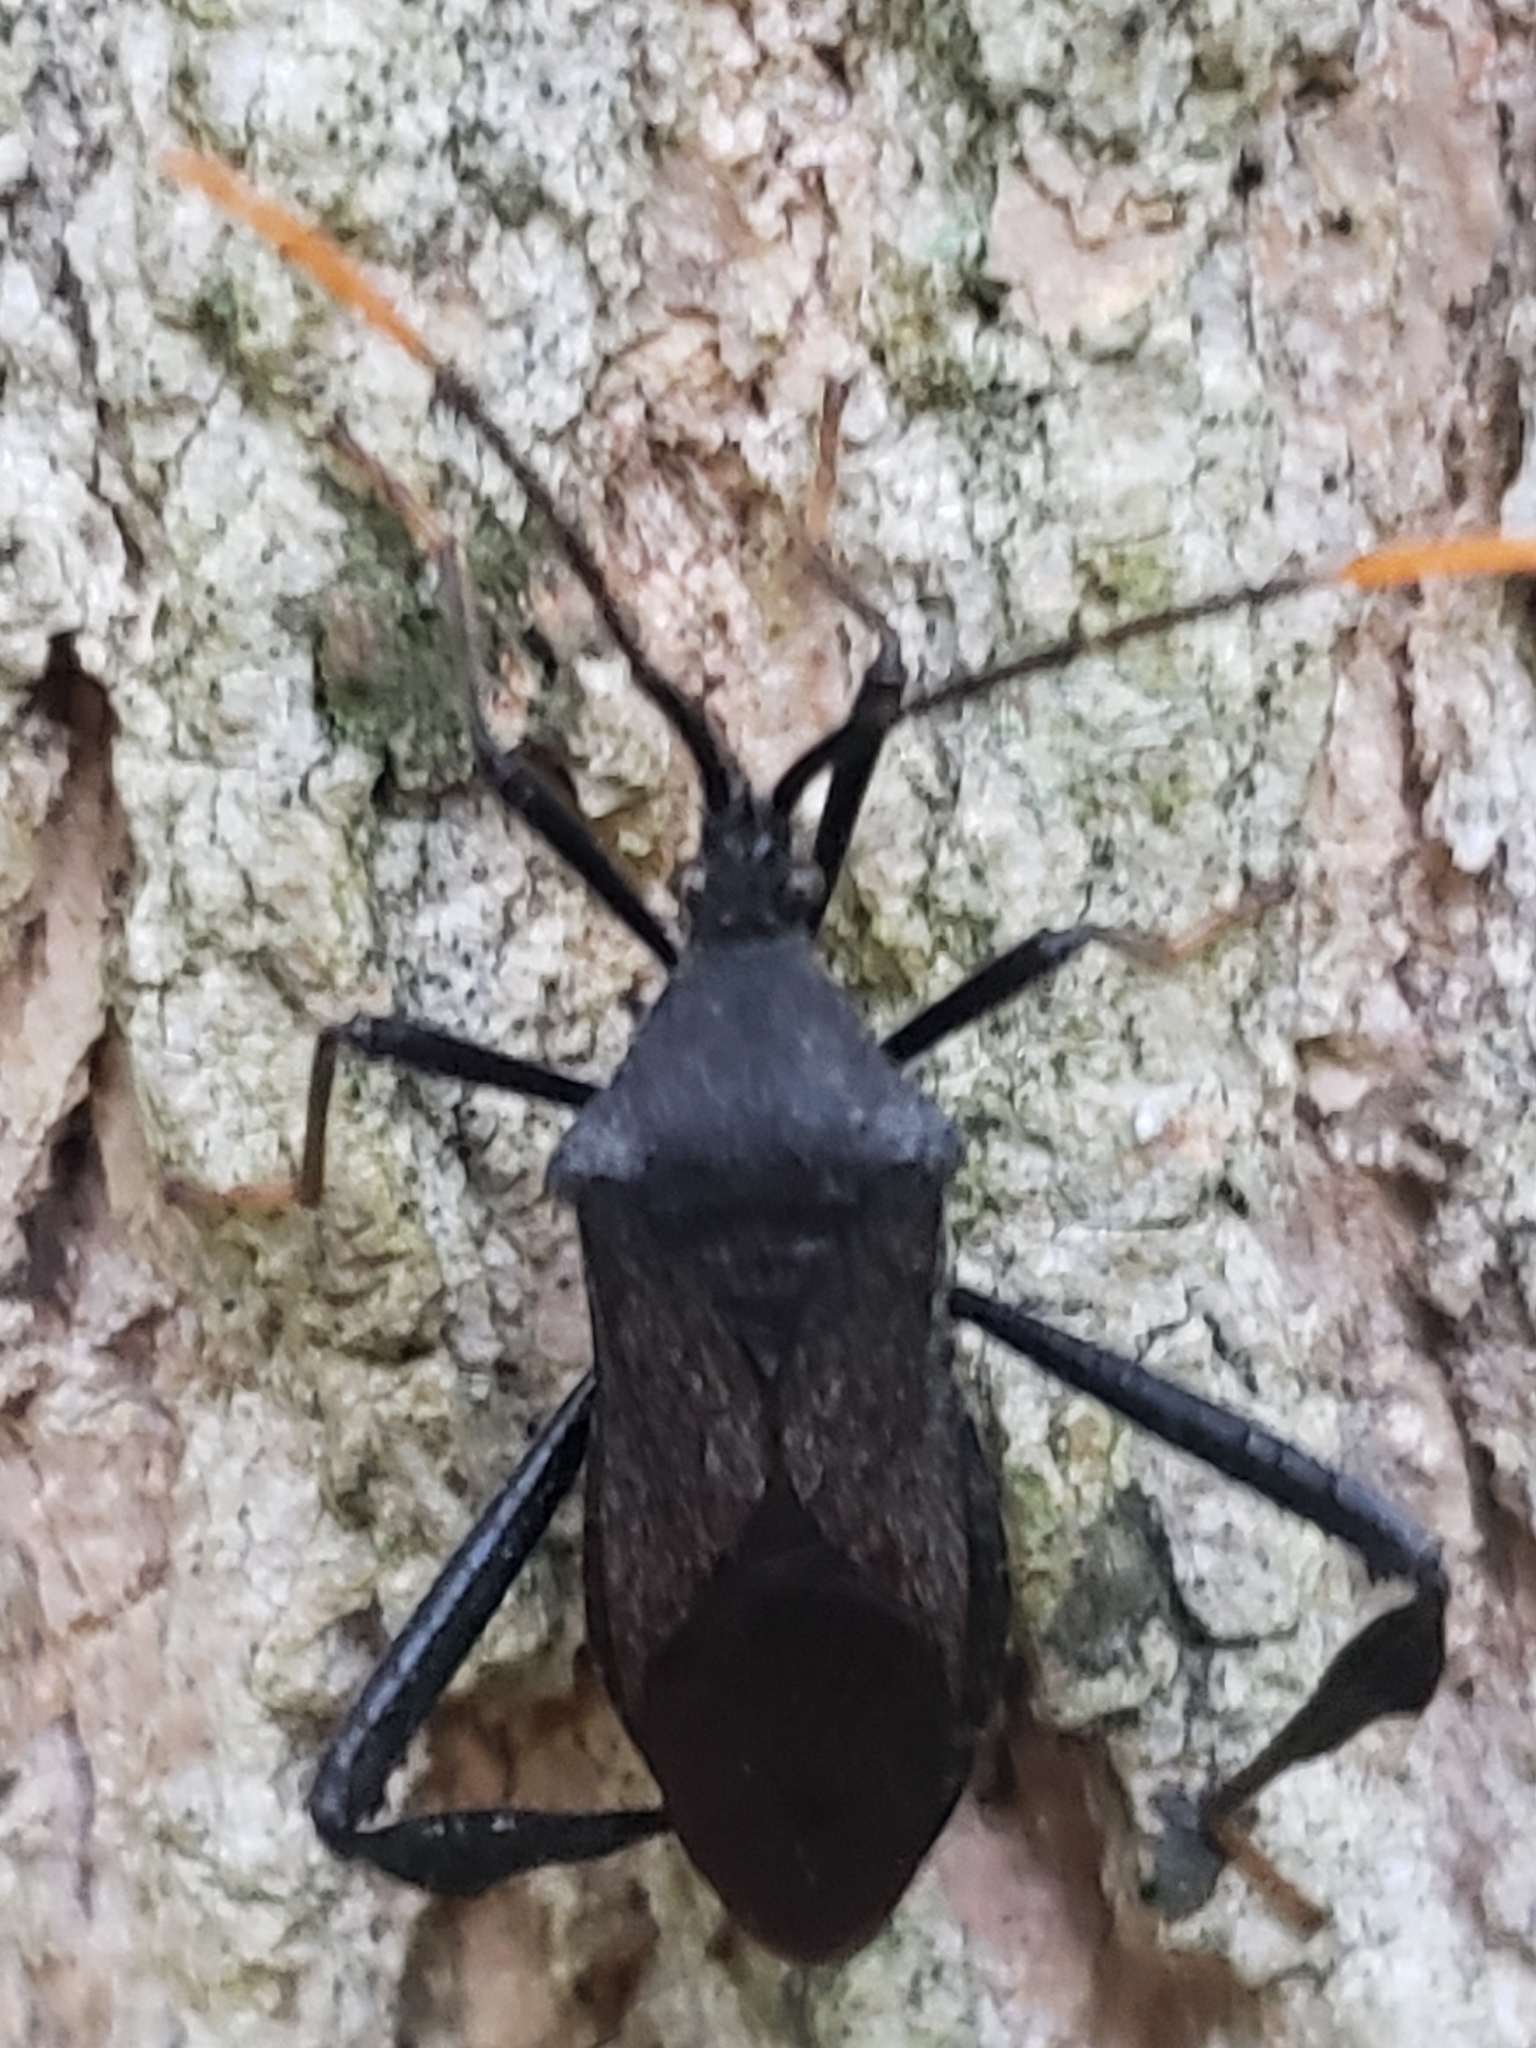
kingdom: Animalia
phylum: Arthropoda
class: Insecta
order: Hemiptera
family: Coreidae
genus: Acanthocephala
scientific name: Acanthocephala terminalis
